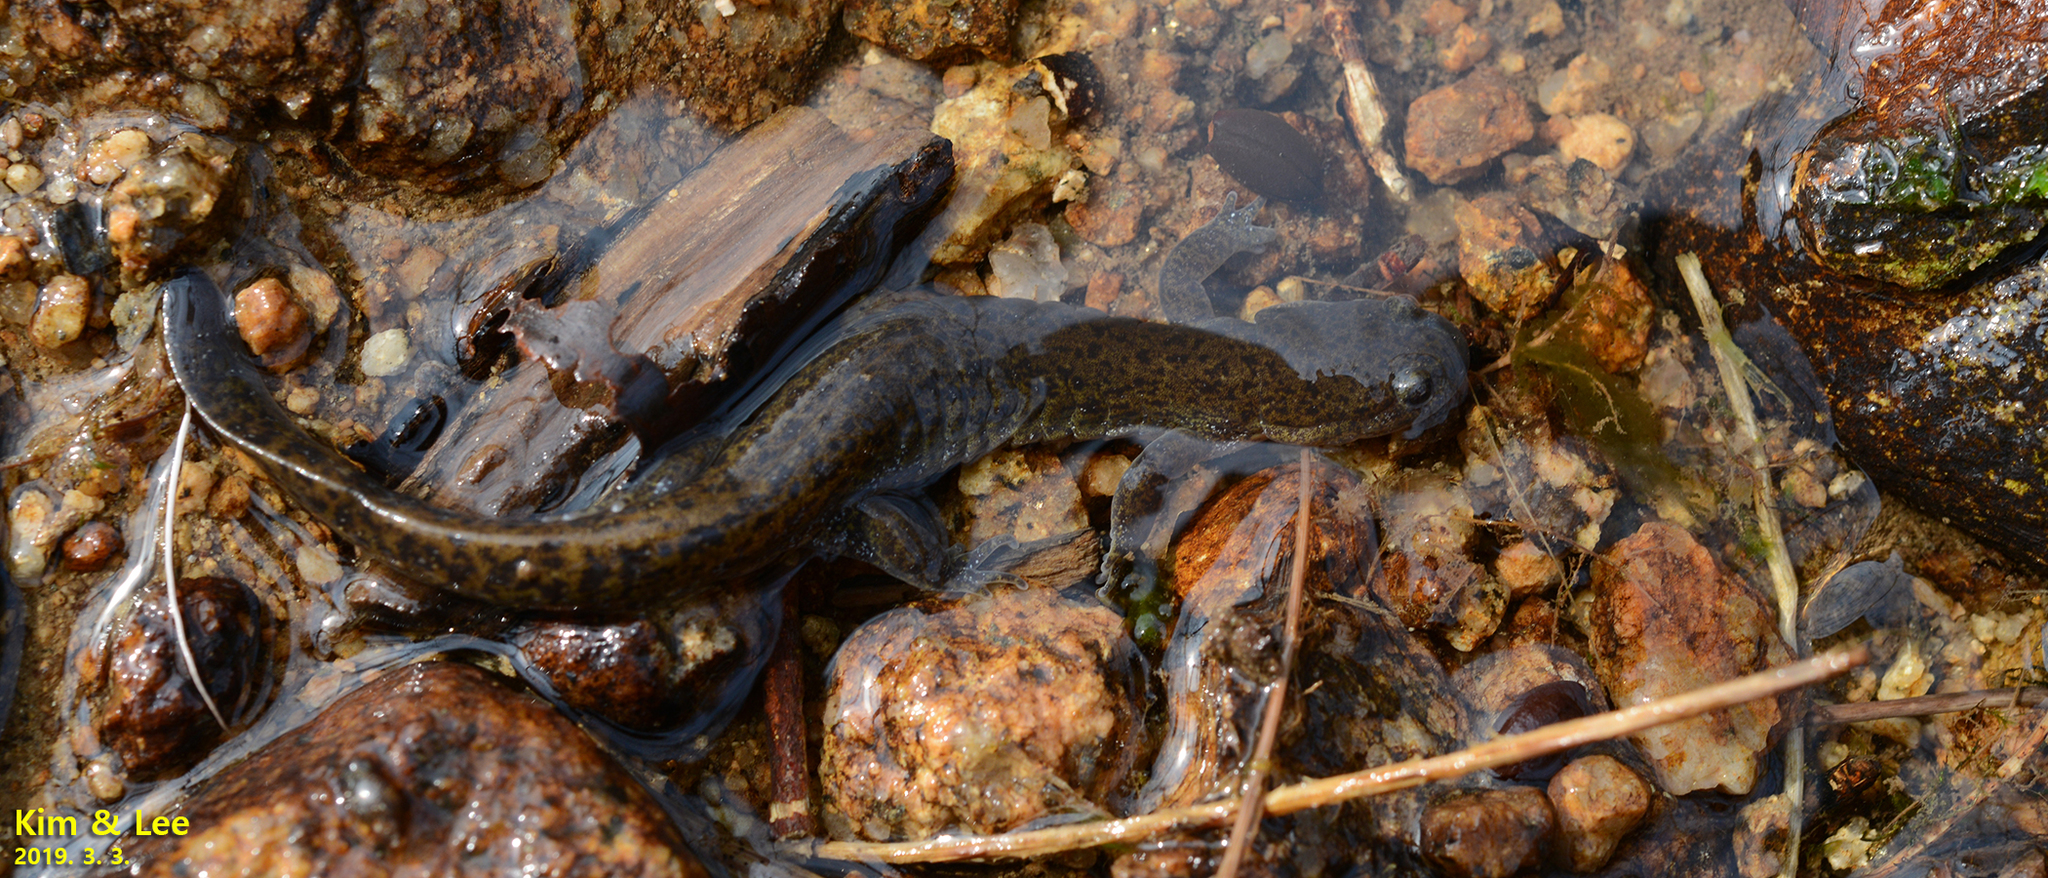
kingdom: Animalia
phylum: Chordata
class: Amphibia
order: Caudata
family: Hynobiidae
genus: Hynobius
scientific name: Hynobius geojeensis
